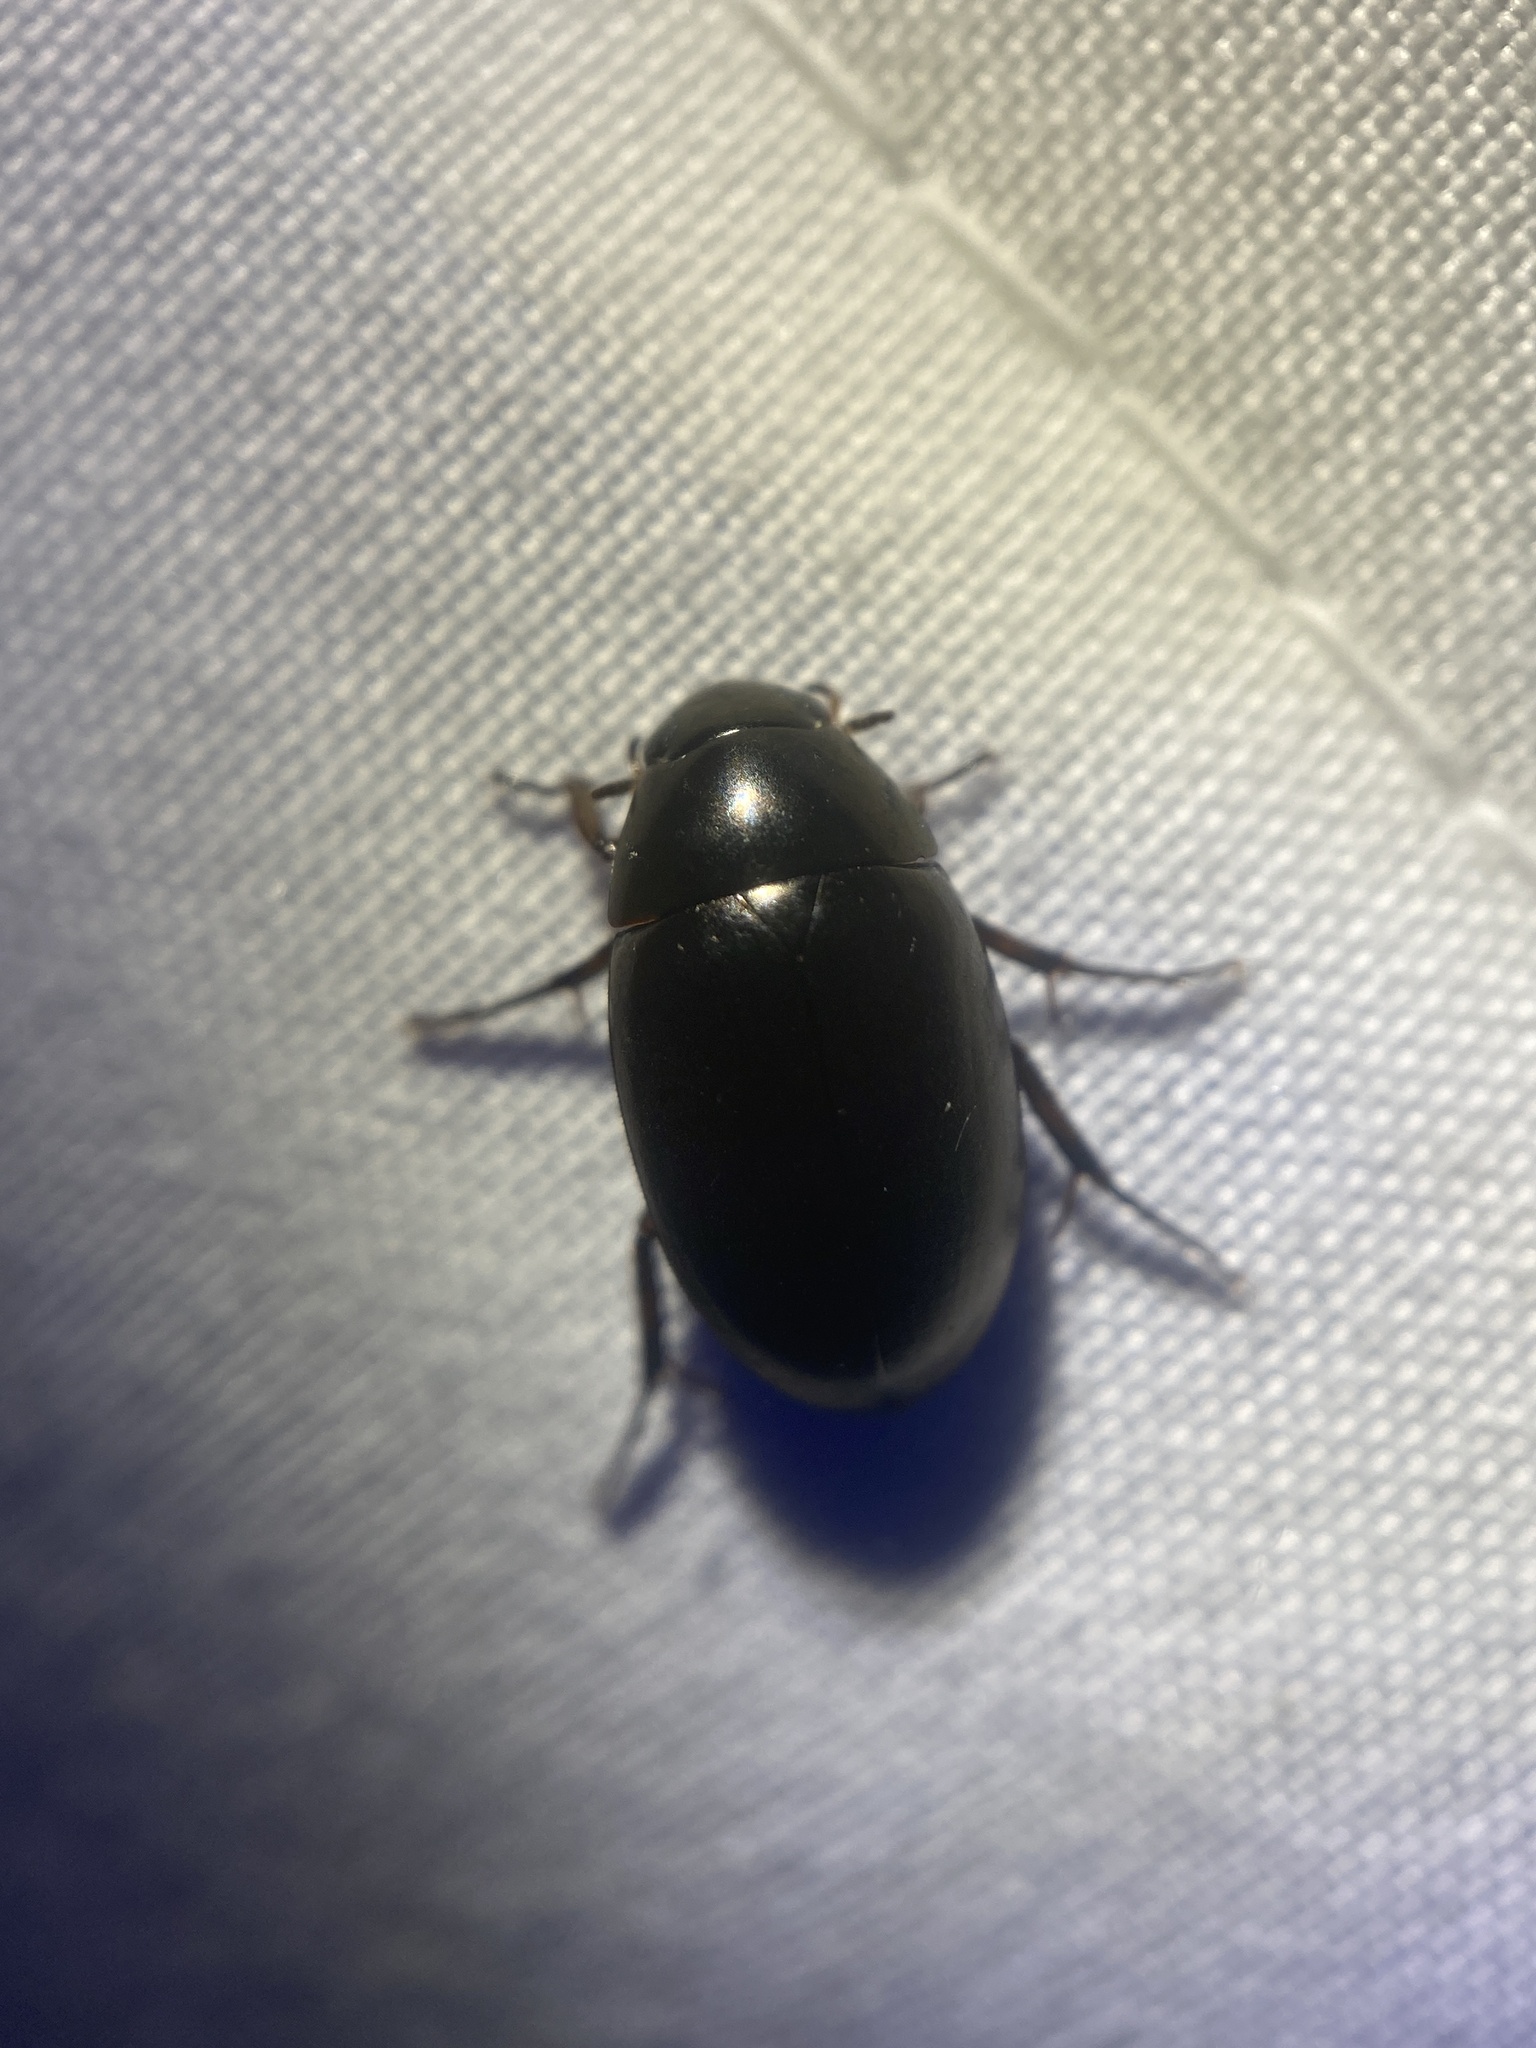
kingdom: Animalia
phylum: Arthropoda
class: Insecta
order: Coleoptera
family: Hydrophilidae
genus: Tropisternus
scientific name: Tropisternus
